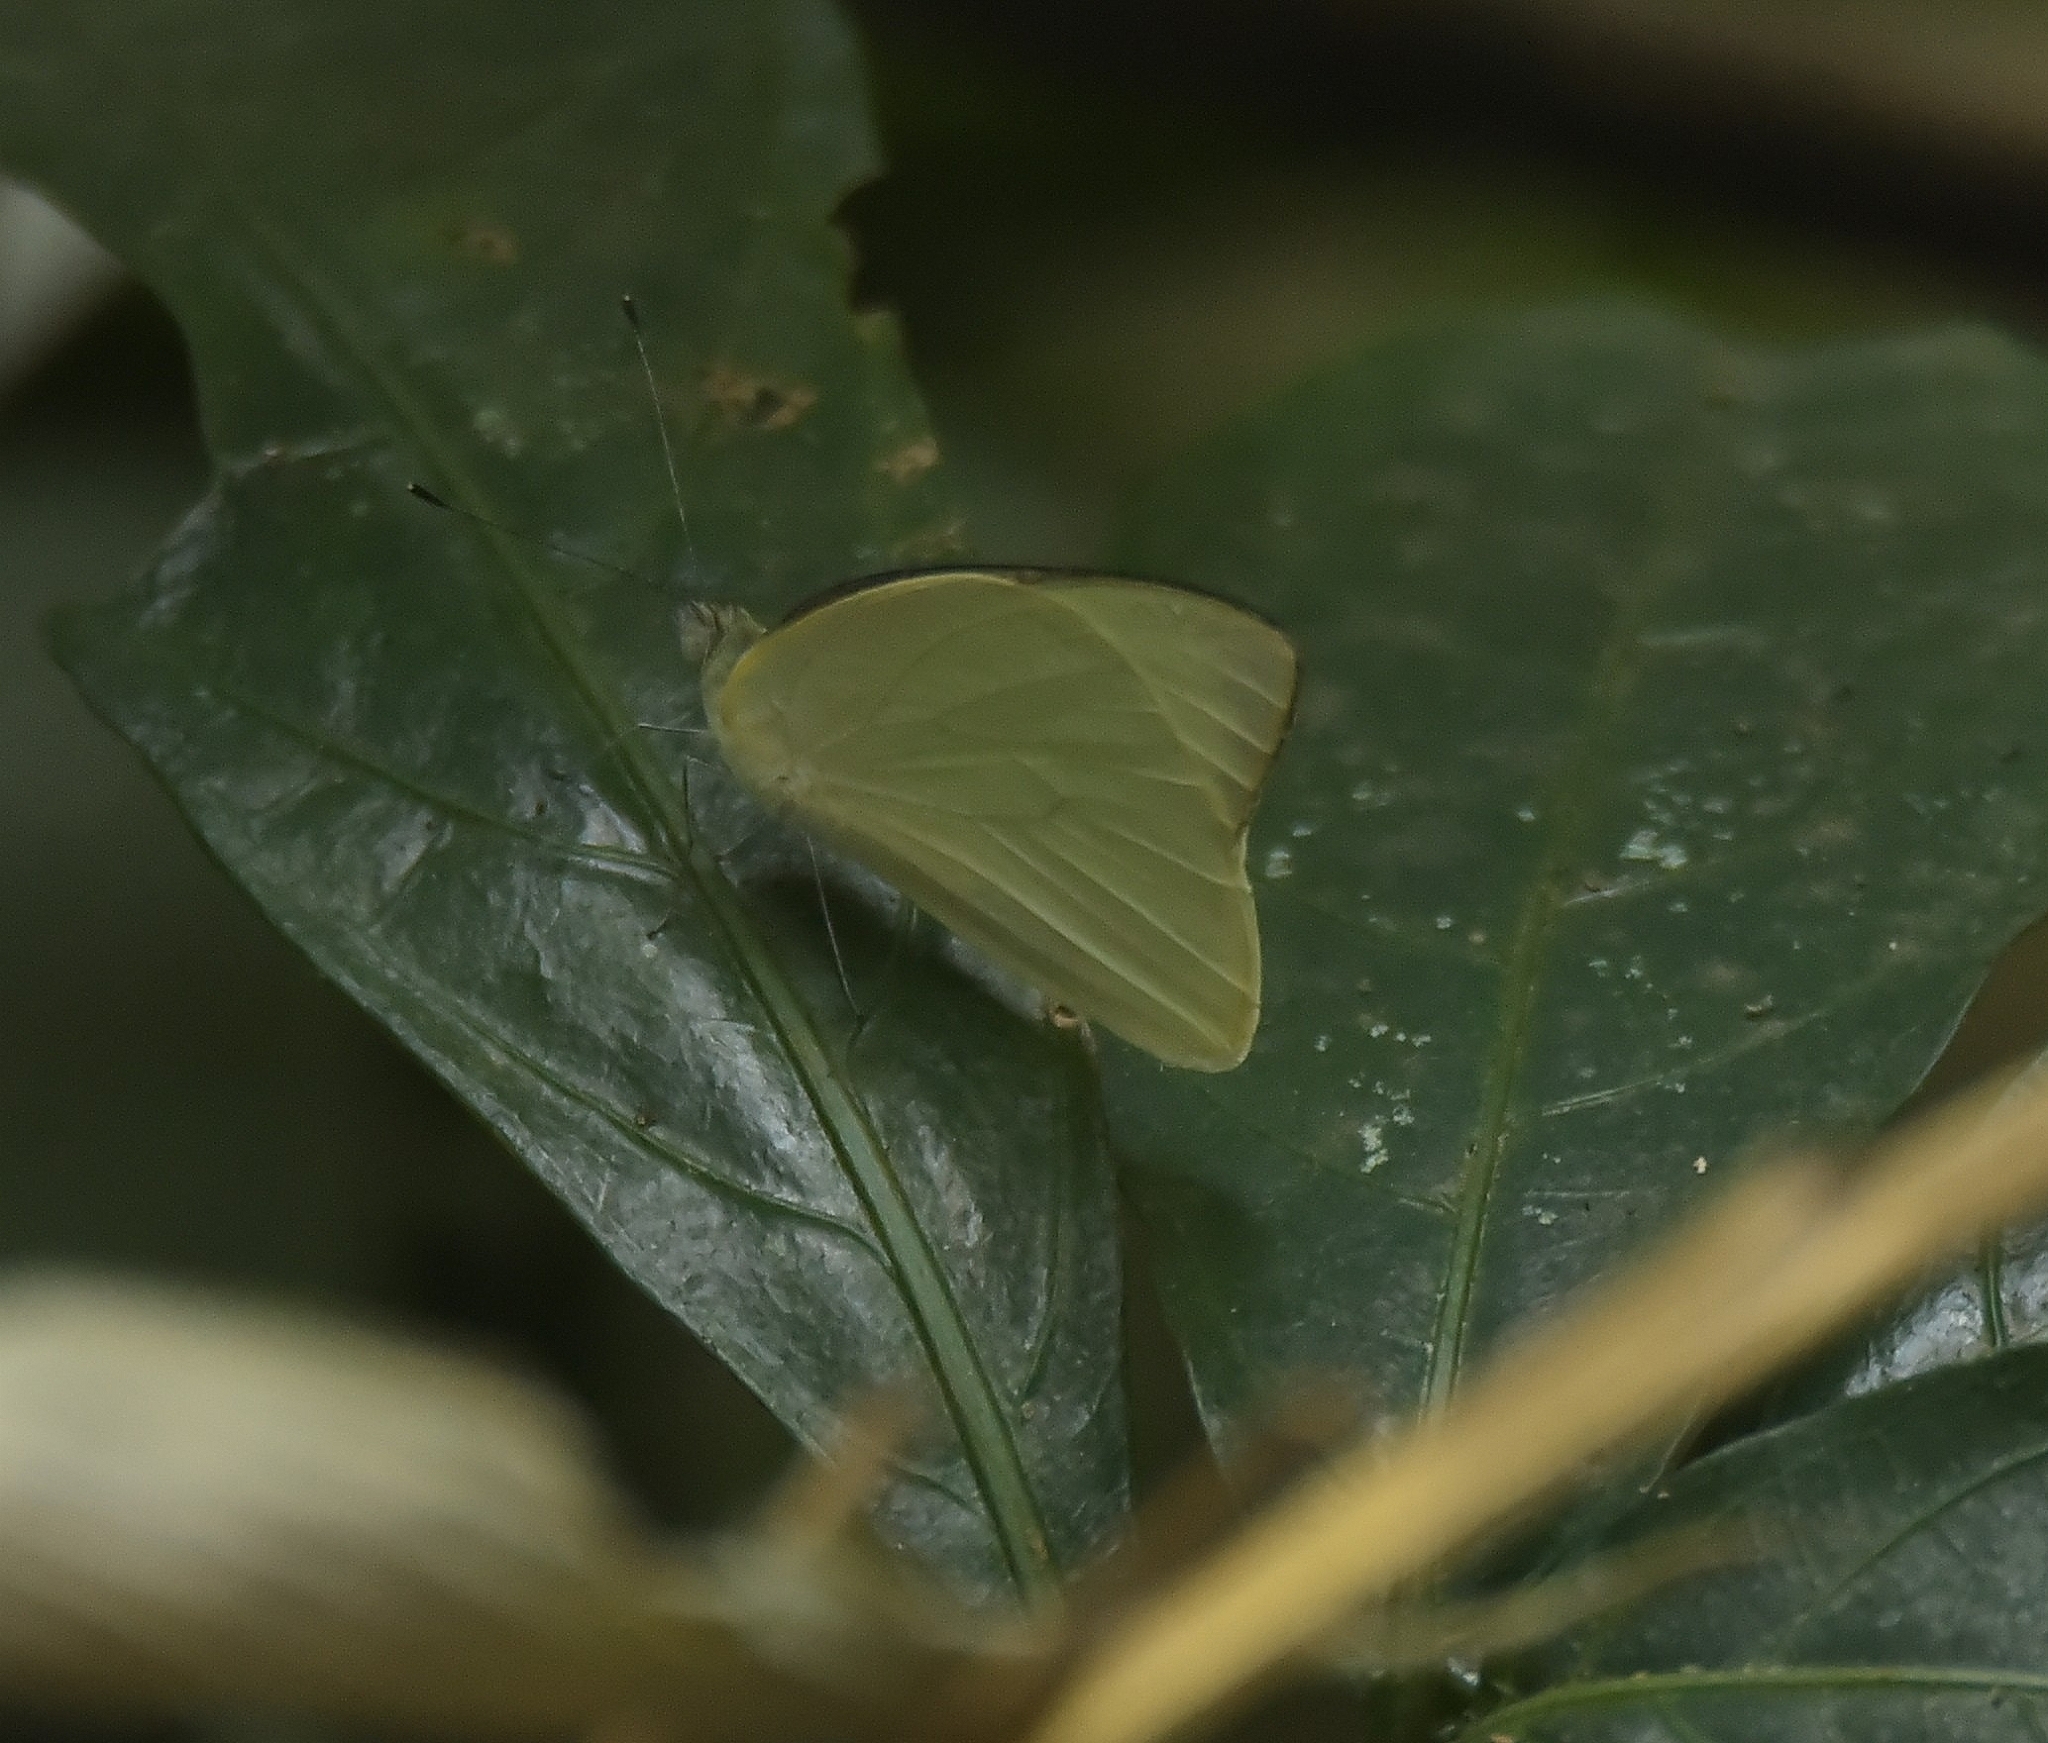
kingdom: Animalia
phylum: Arthropoda
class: Insecta
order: Lepidoptera
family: Pieridae
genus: Appias
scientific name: Appias albina
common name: Common albatross
